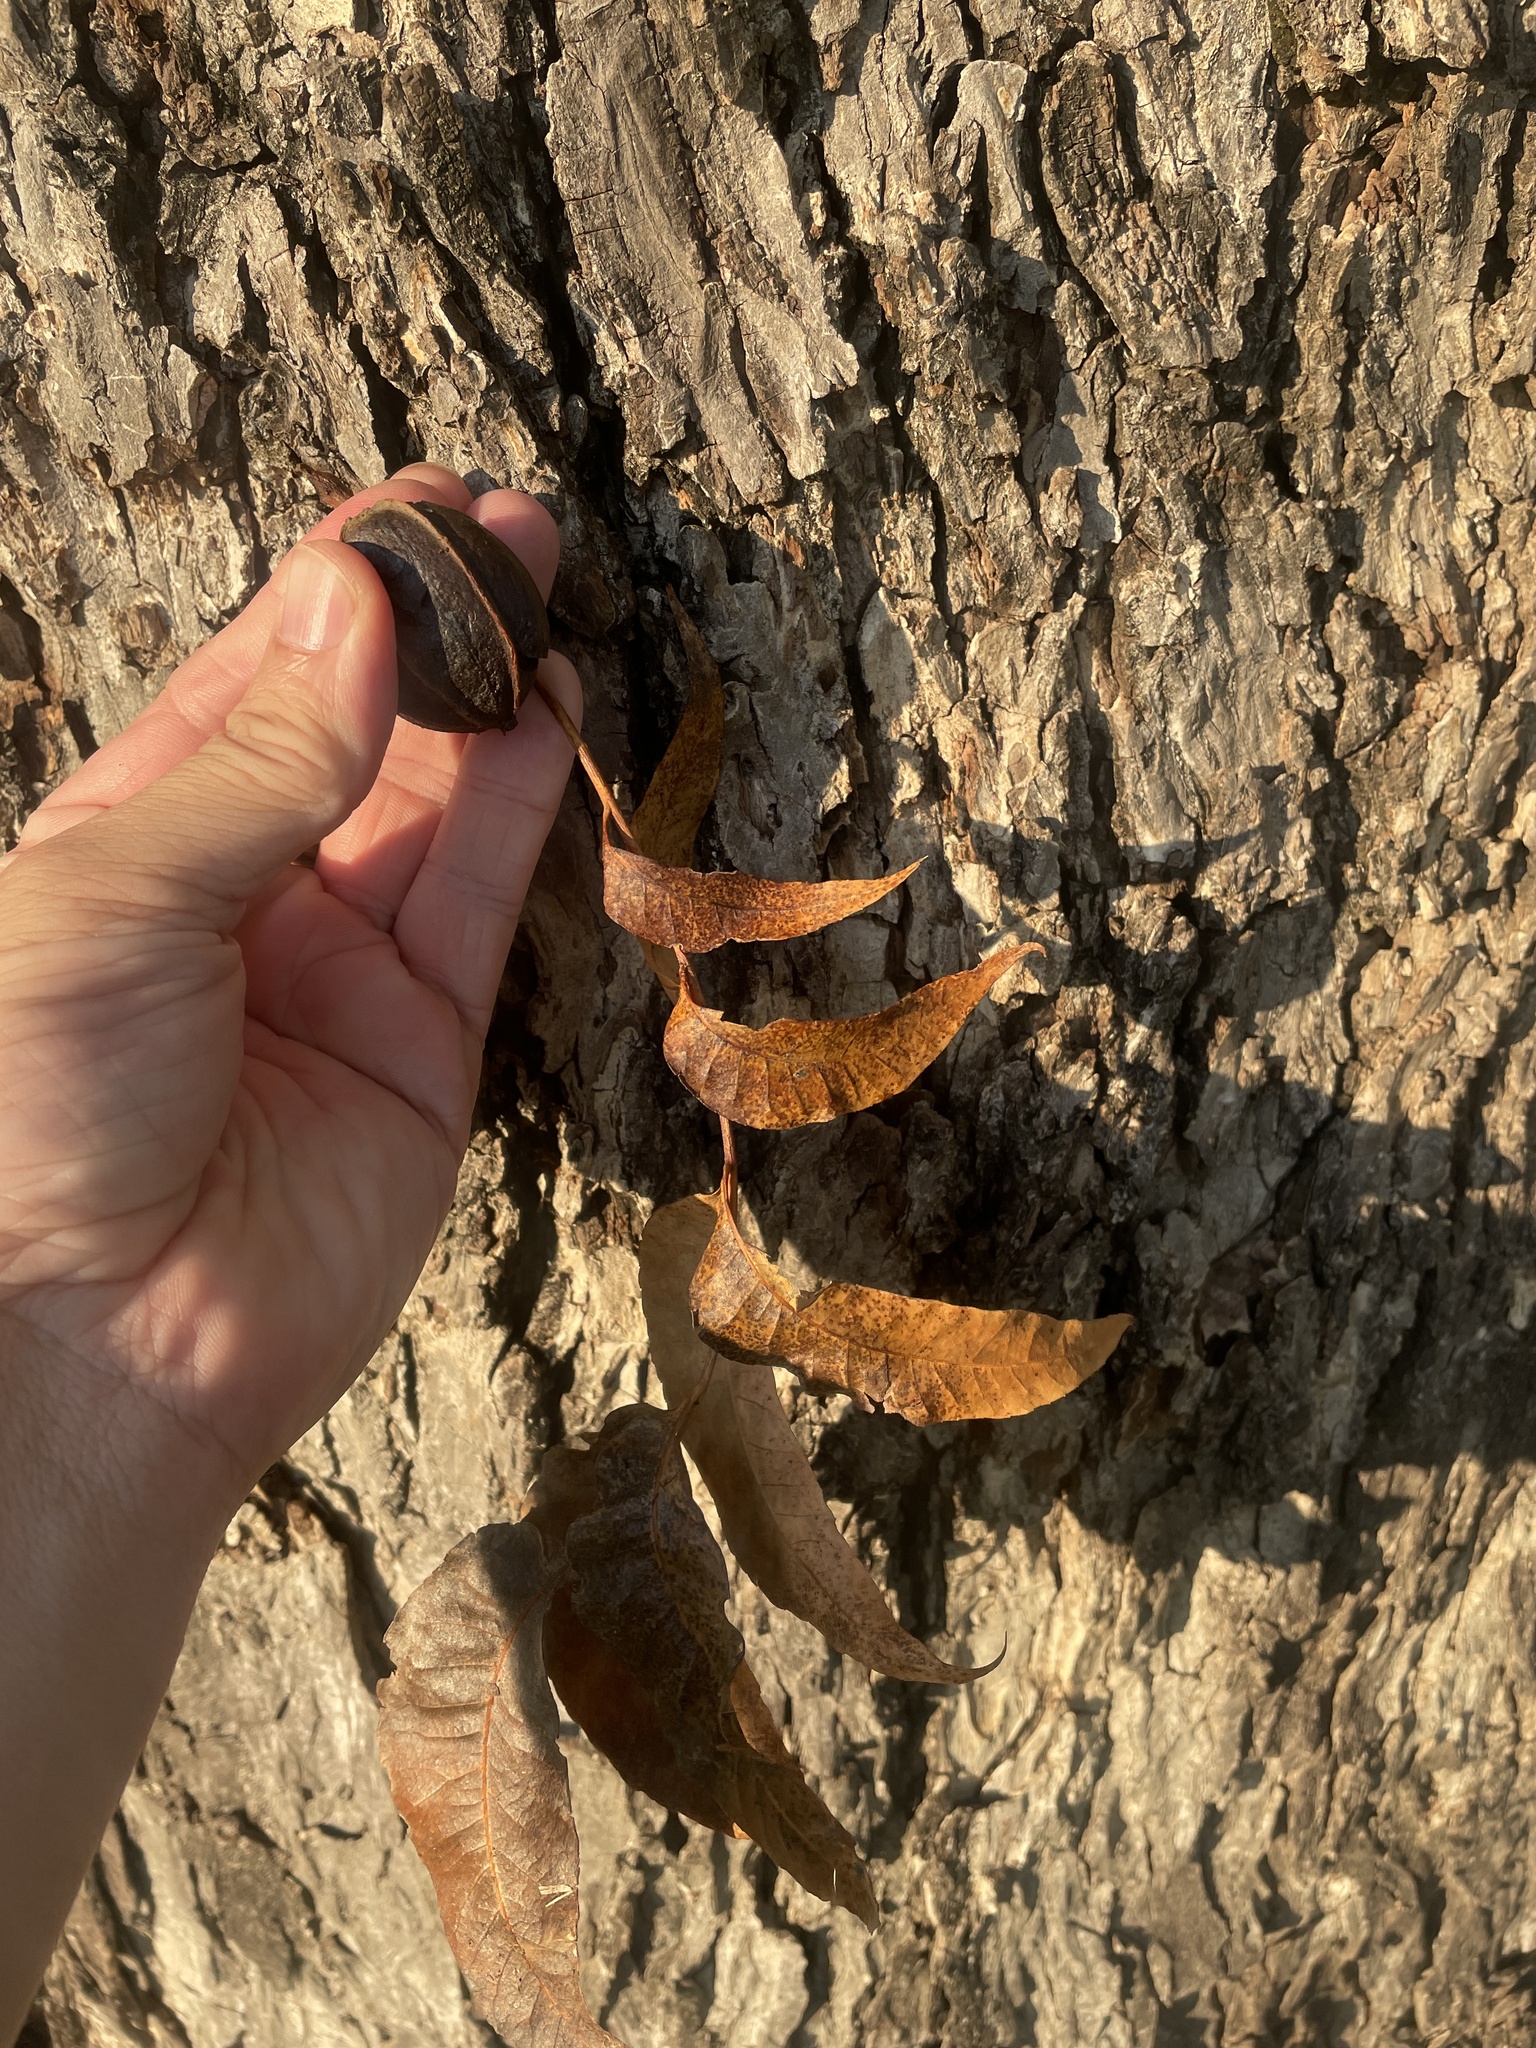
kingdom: Plantae
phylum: Tracheophyta
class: Magnoliopsida
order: Fagales
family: Juglandaceae
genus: Carya
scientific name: Carya illinoinensis
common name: Pecan
